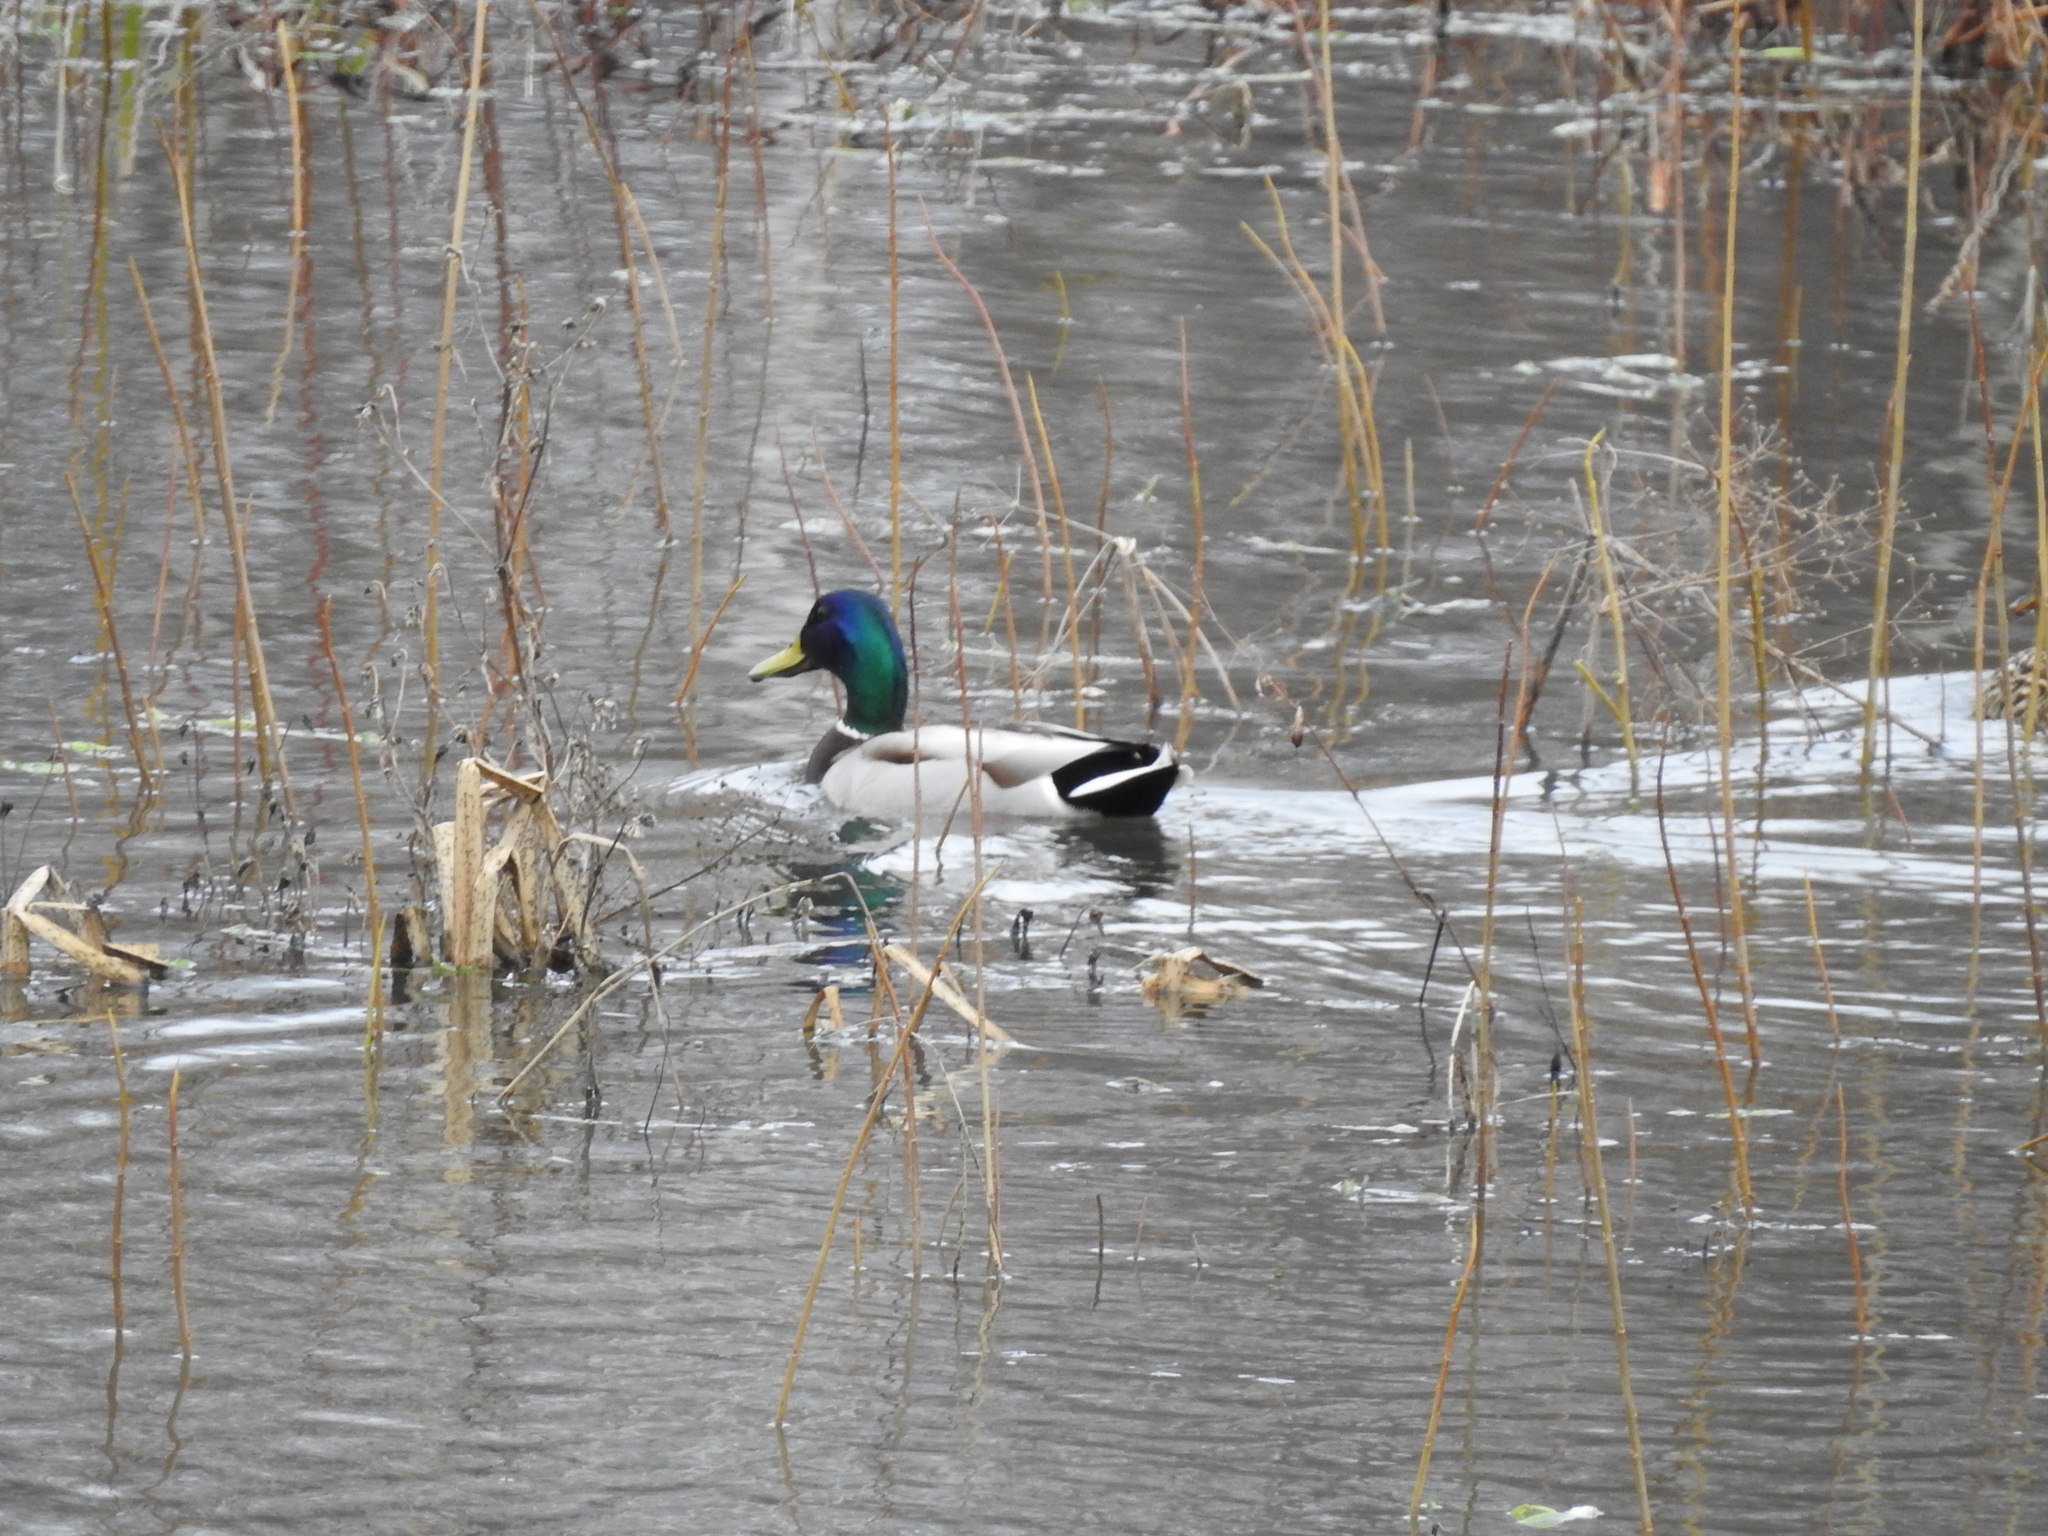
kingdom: Animalia
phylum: Chordata
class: Aves
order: Anseriformes
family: Anatidae
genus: Anas
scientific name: Anas platyrhynchos
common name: Mallard
